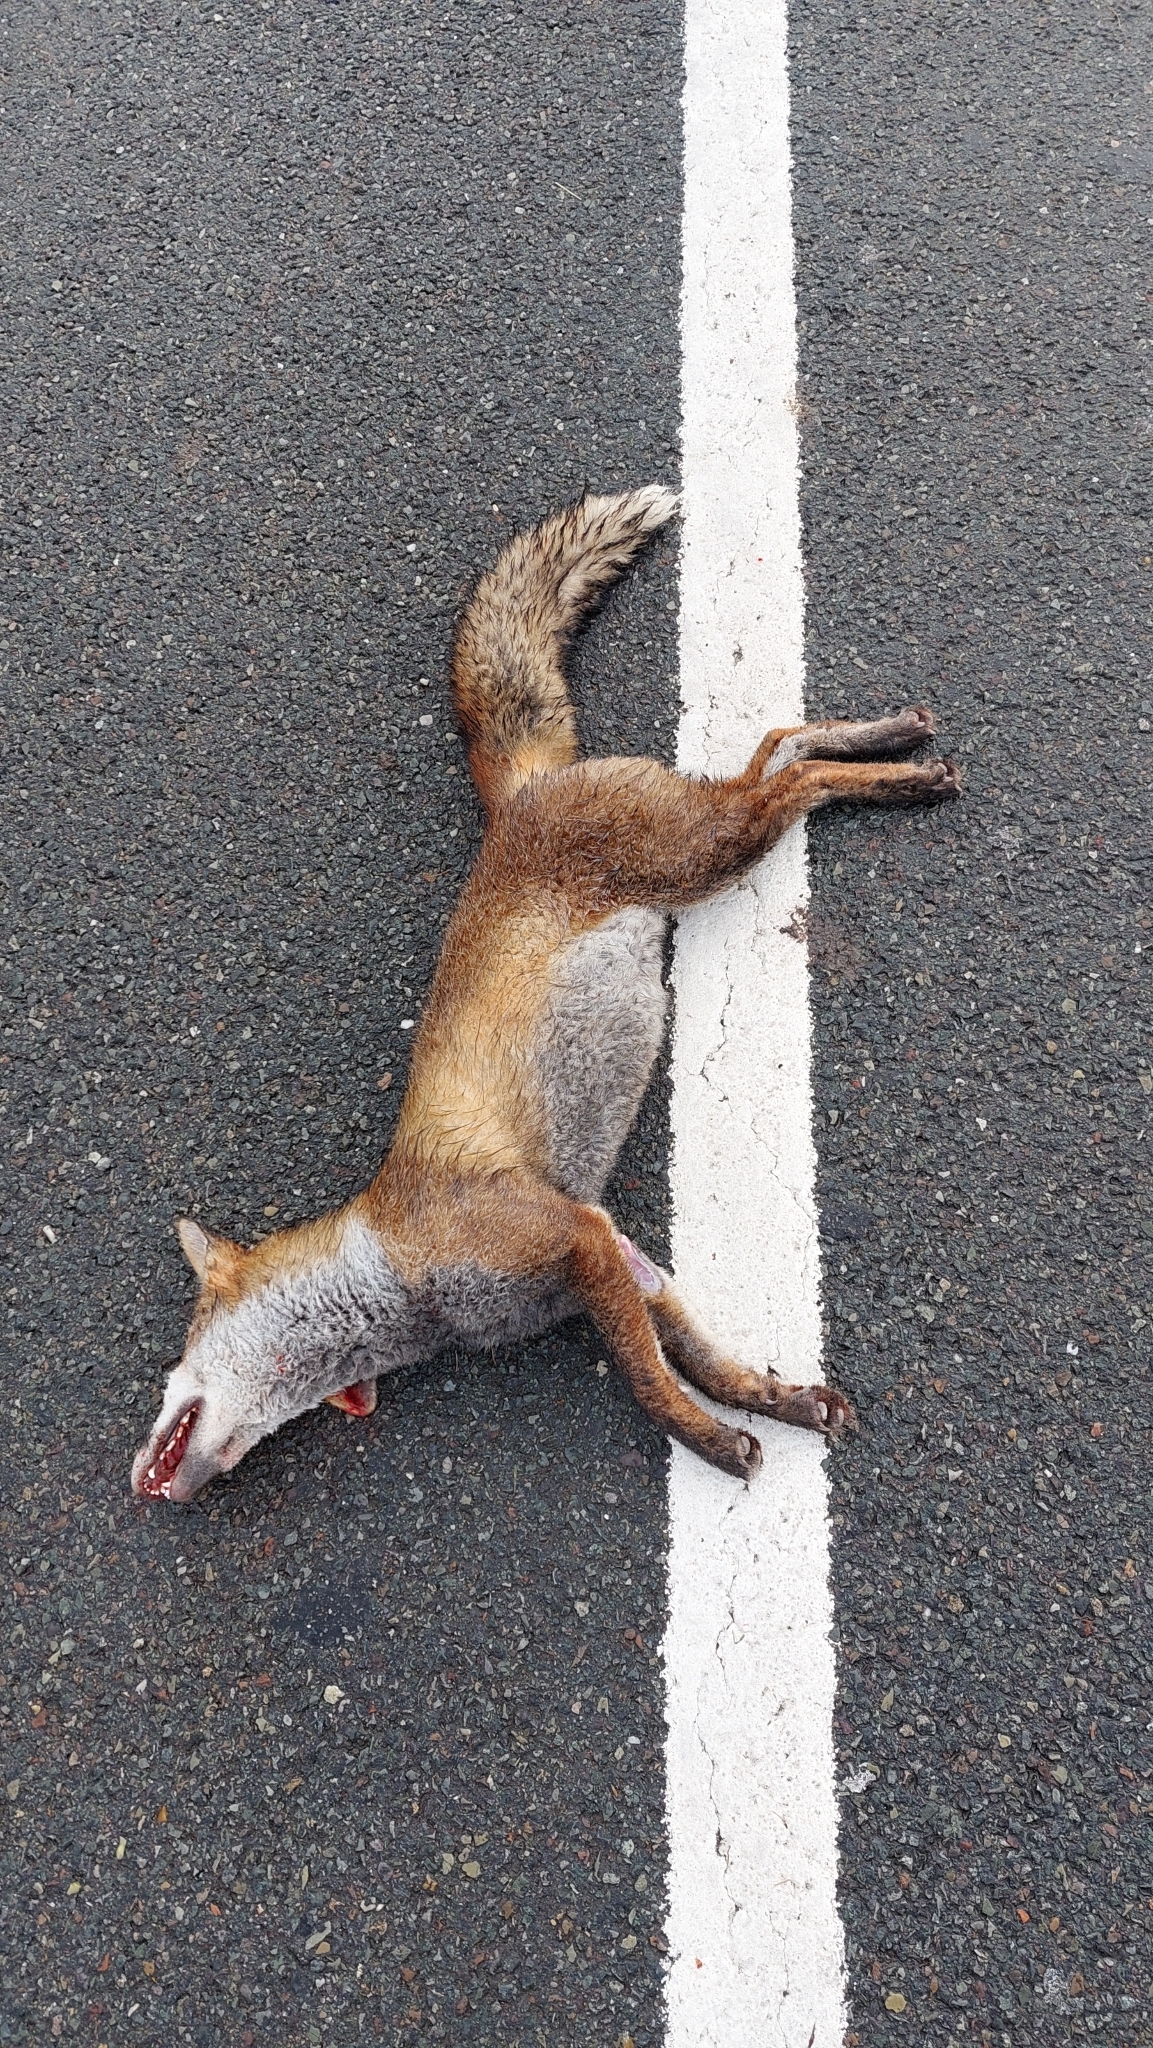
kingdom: Animalia
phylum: Chordata
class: Mammalia
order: Carnivora
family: Canidae
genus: Vulpes
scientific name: Vulpes vulpes
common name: Red fox
